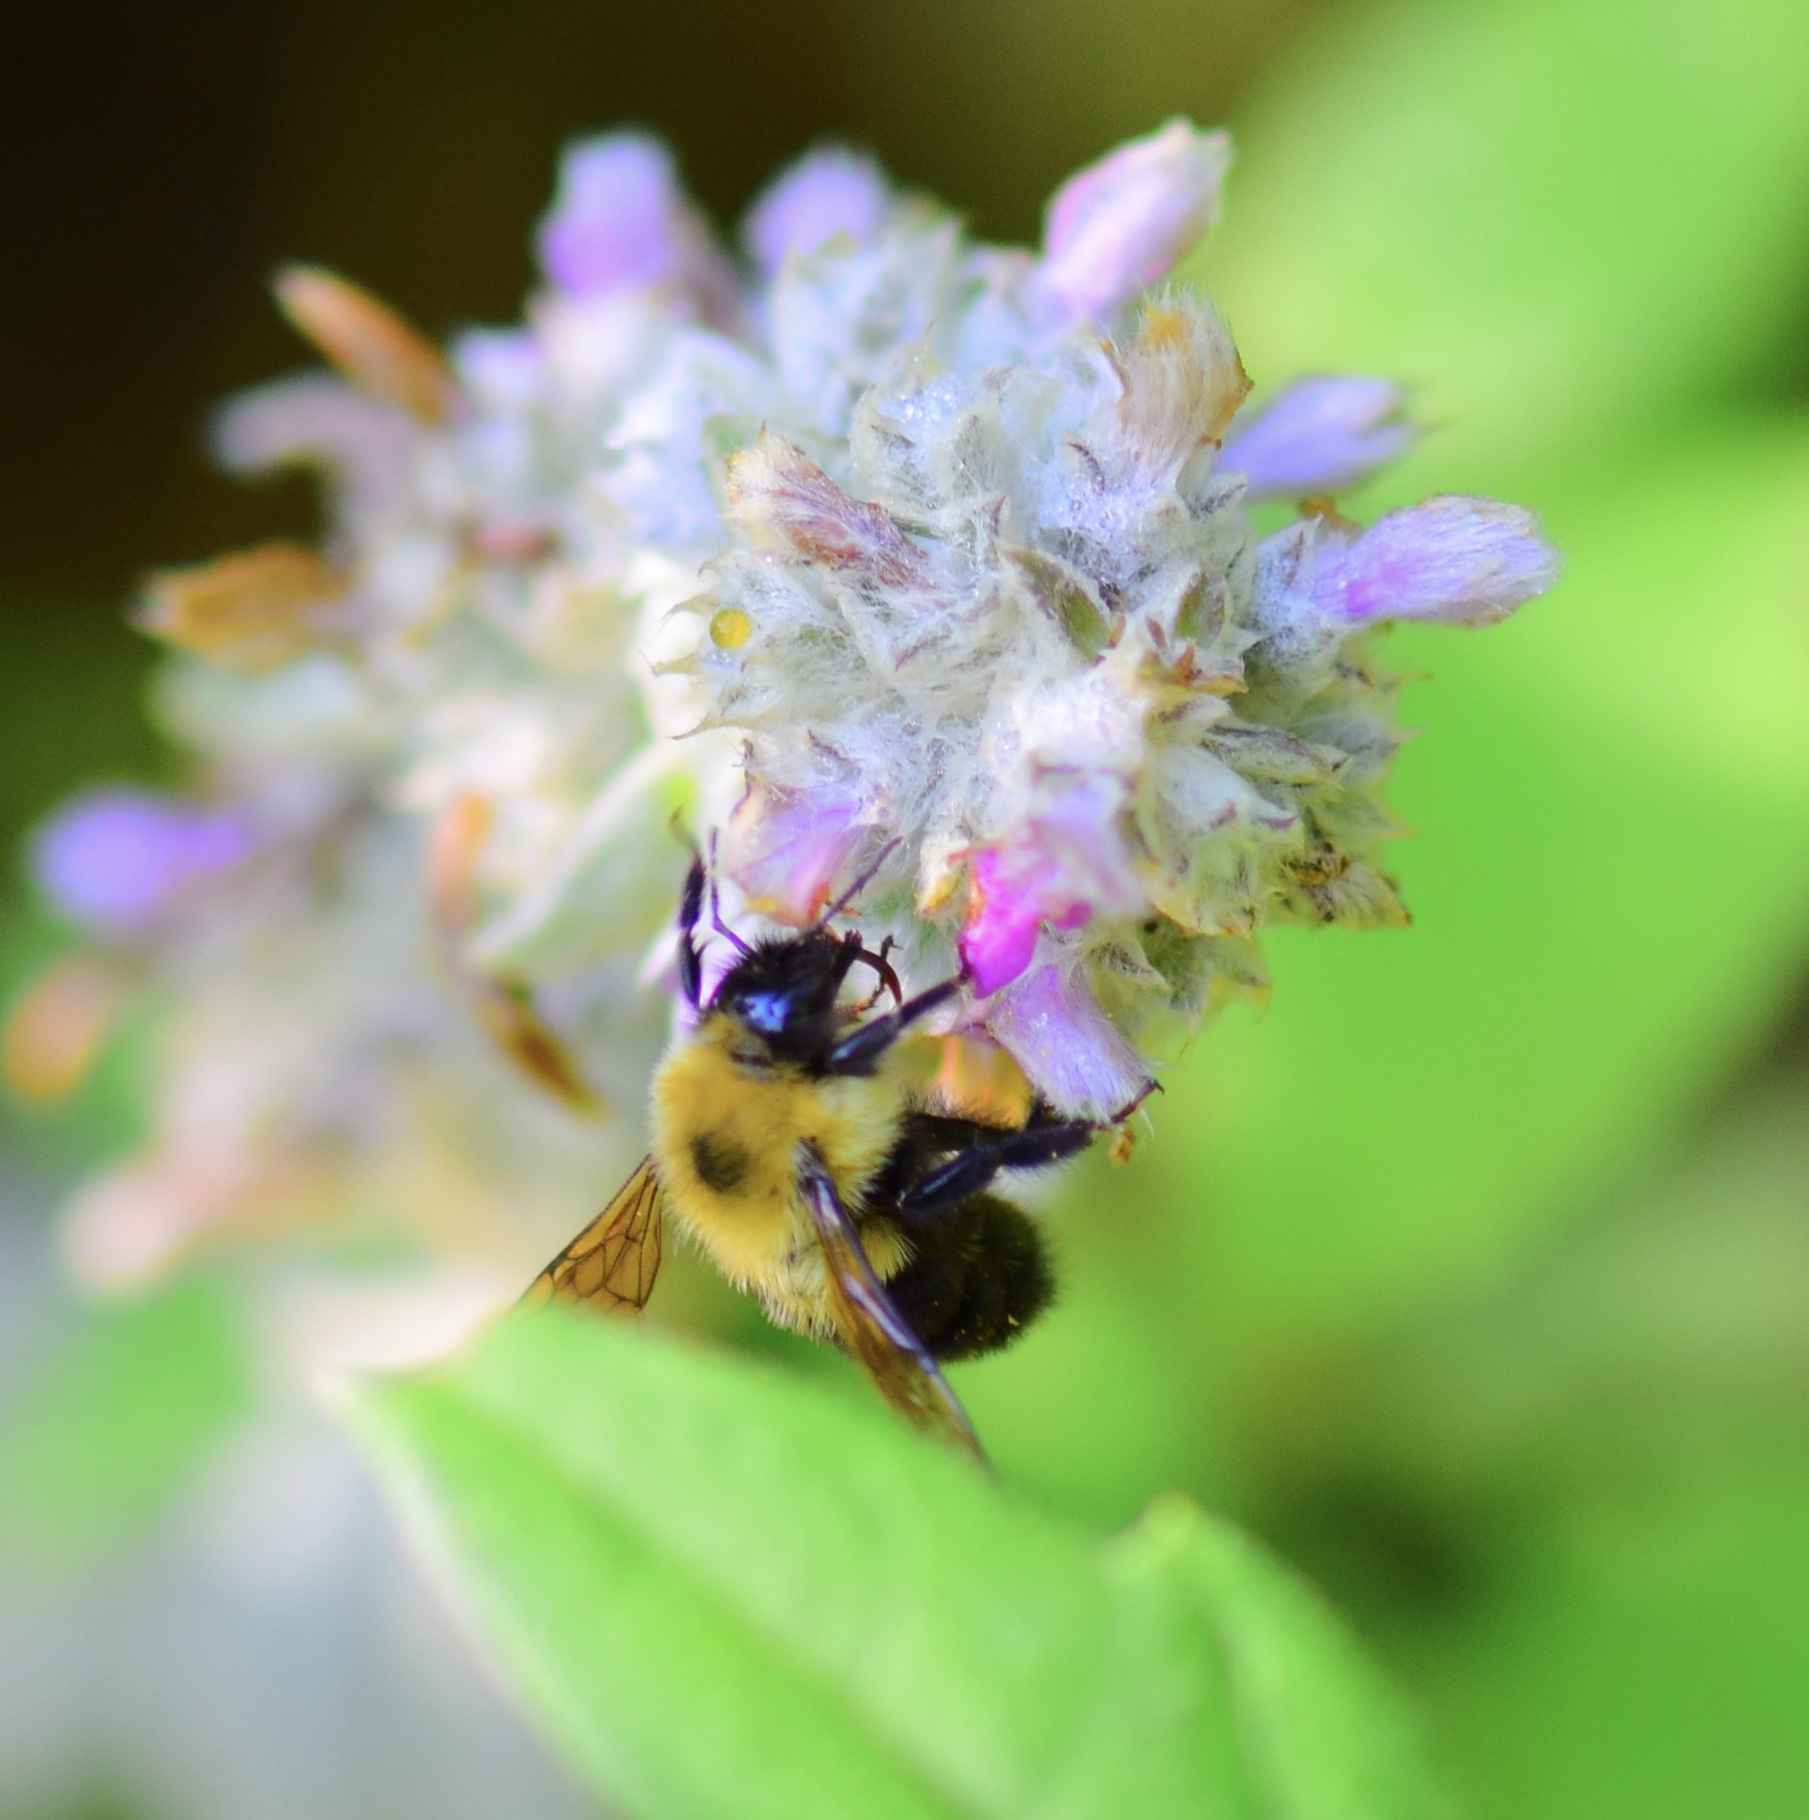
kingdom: Animalia
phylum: Arthropoda
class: Insecta
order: Hymenoptera
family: Apidae
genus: Bombus
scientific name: Bombus bimaculatus
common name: Two-spotted bumble bee
